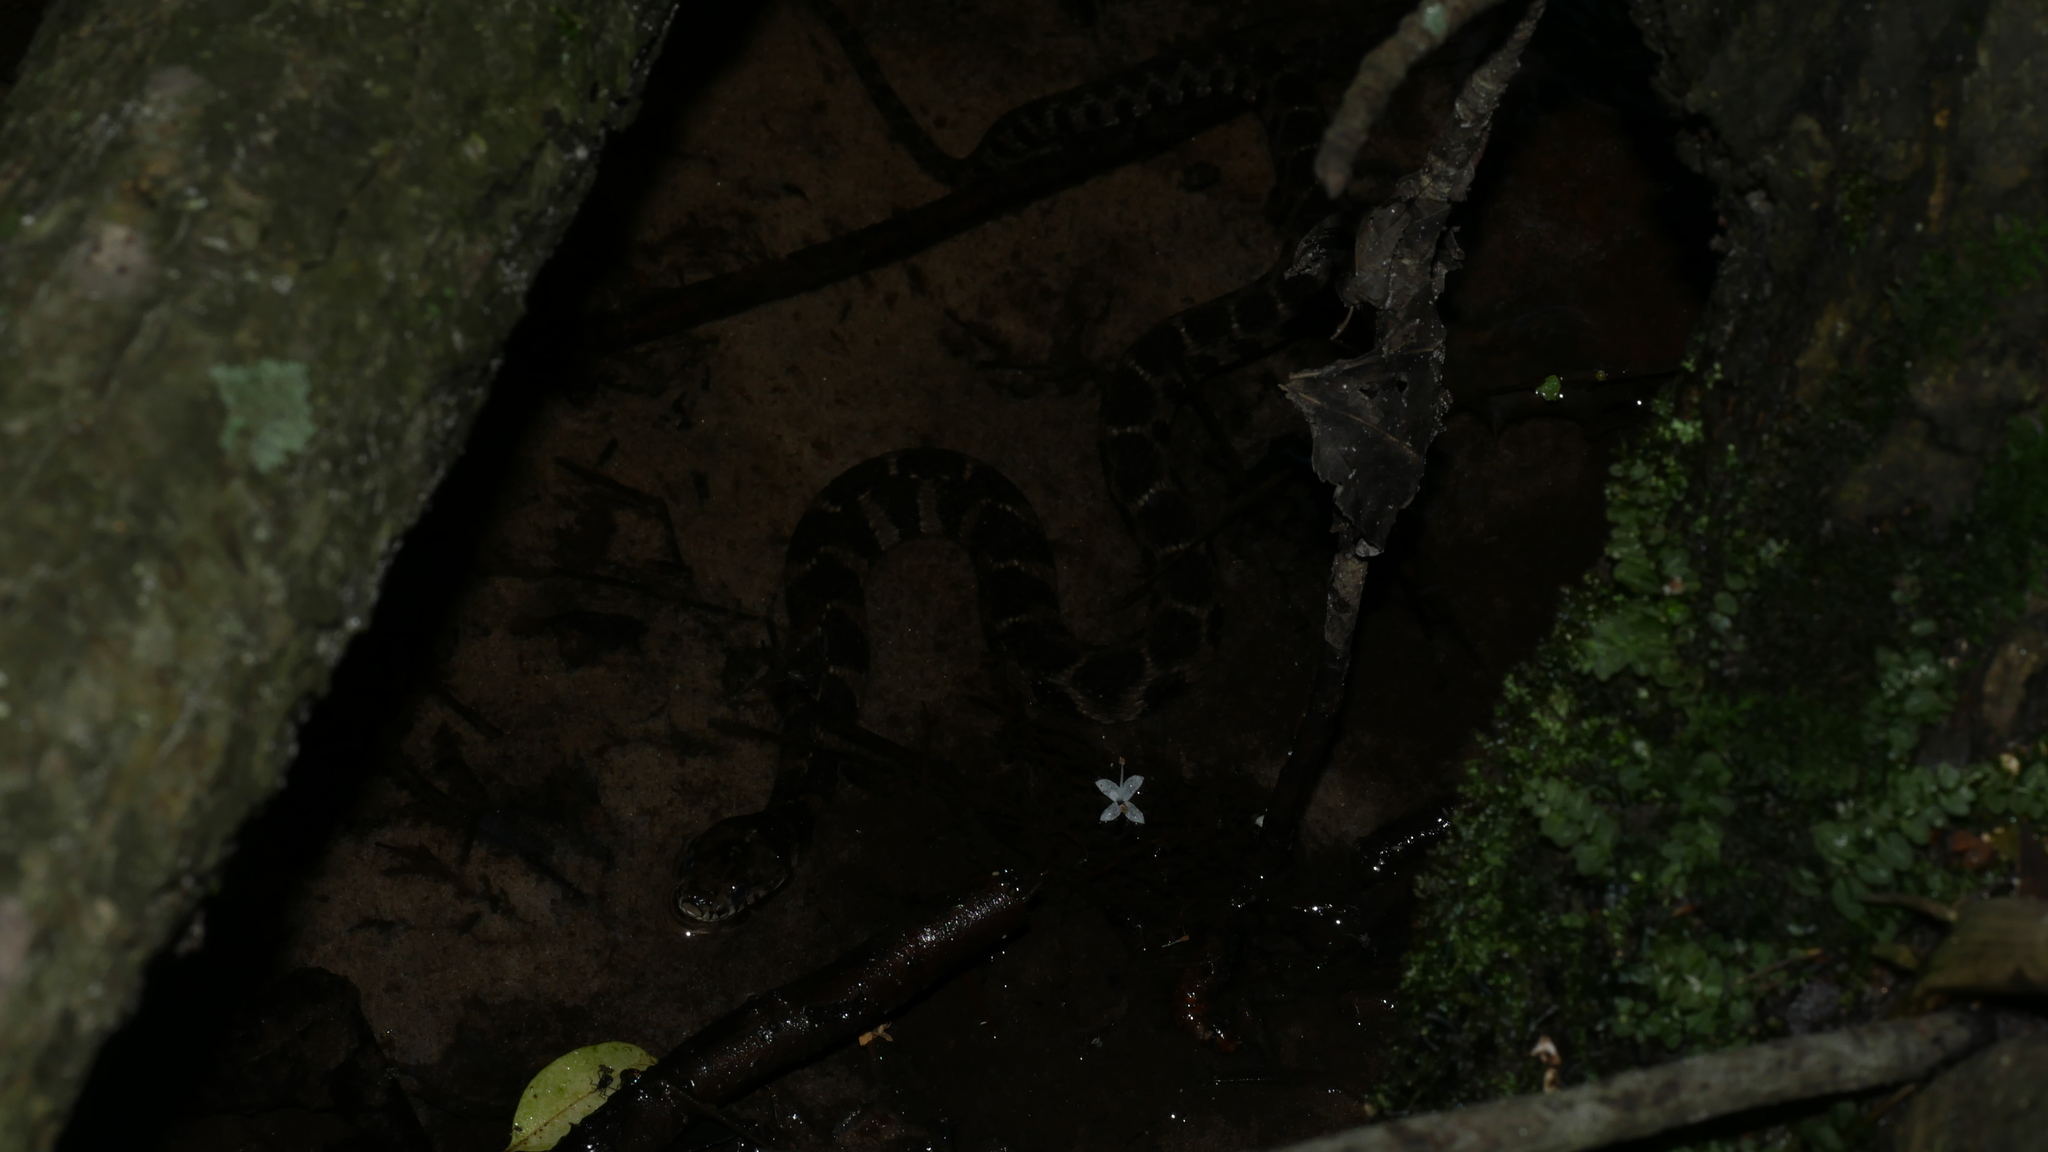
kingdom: Animalia
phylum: Chordata
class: Squamata
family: Colubridae
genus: Nerodia
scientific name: Nerodia sipedon
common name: Northern water snake
